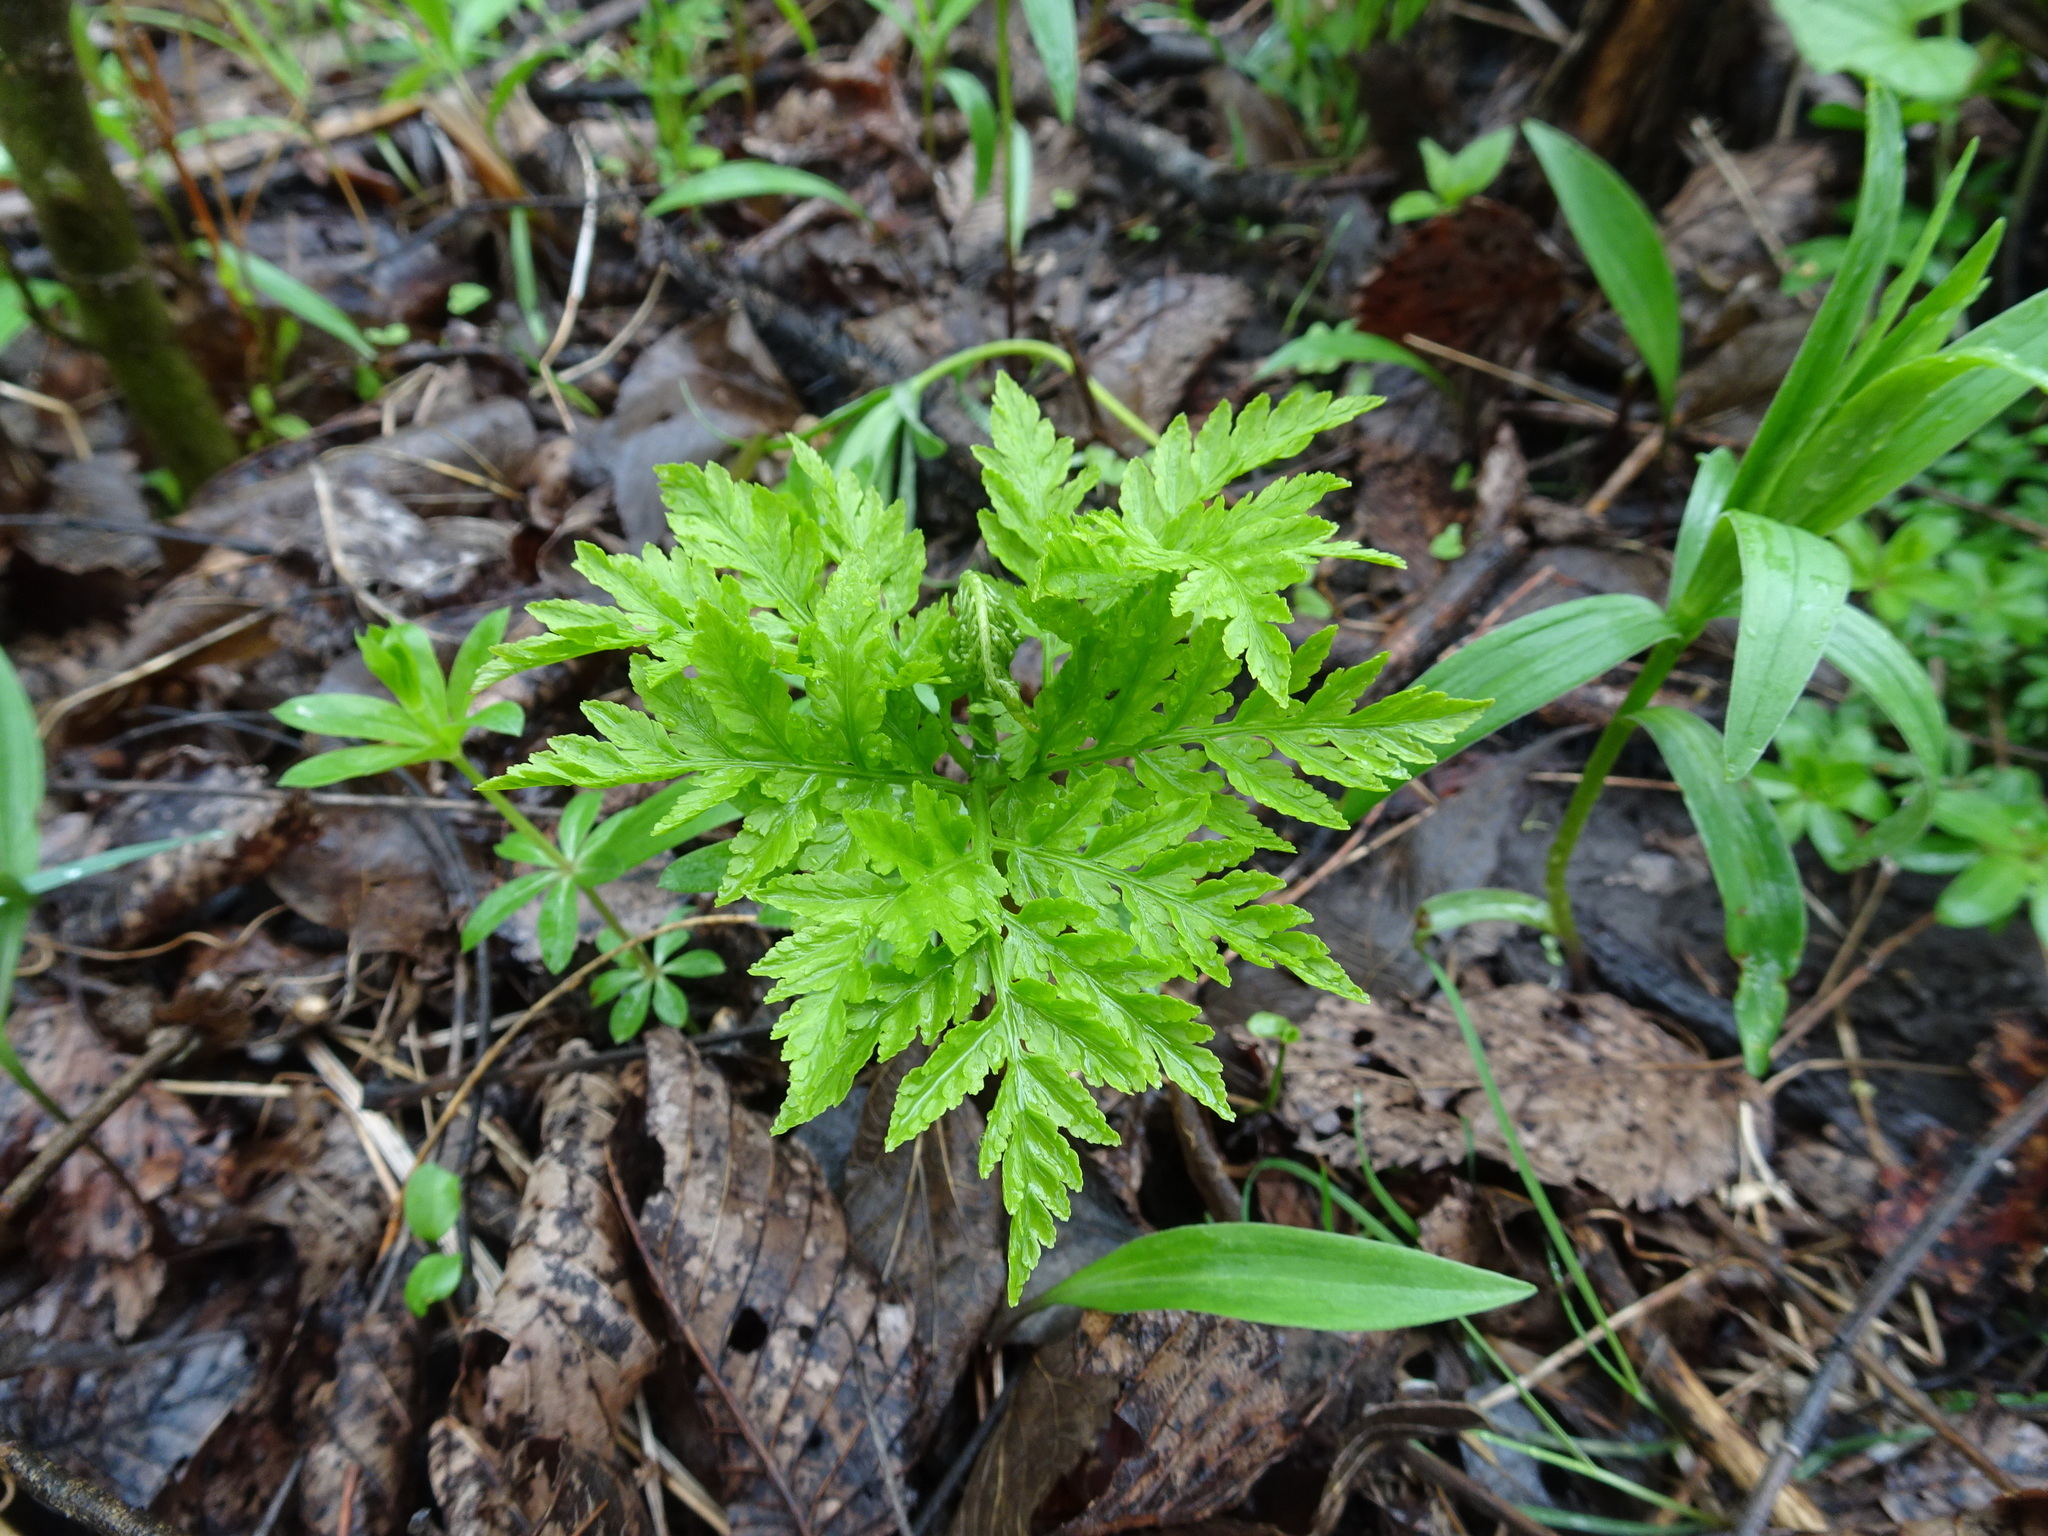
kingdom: Plantae
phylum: Tracheophyta
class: Polypodiopsida
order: Ophioglossales
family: Ophioglossaceae
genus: Botrypus
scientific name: Botrypus virginianus
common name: Common grapefern
